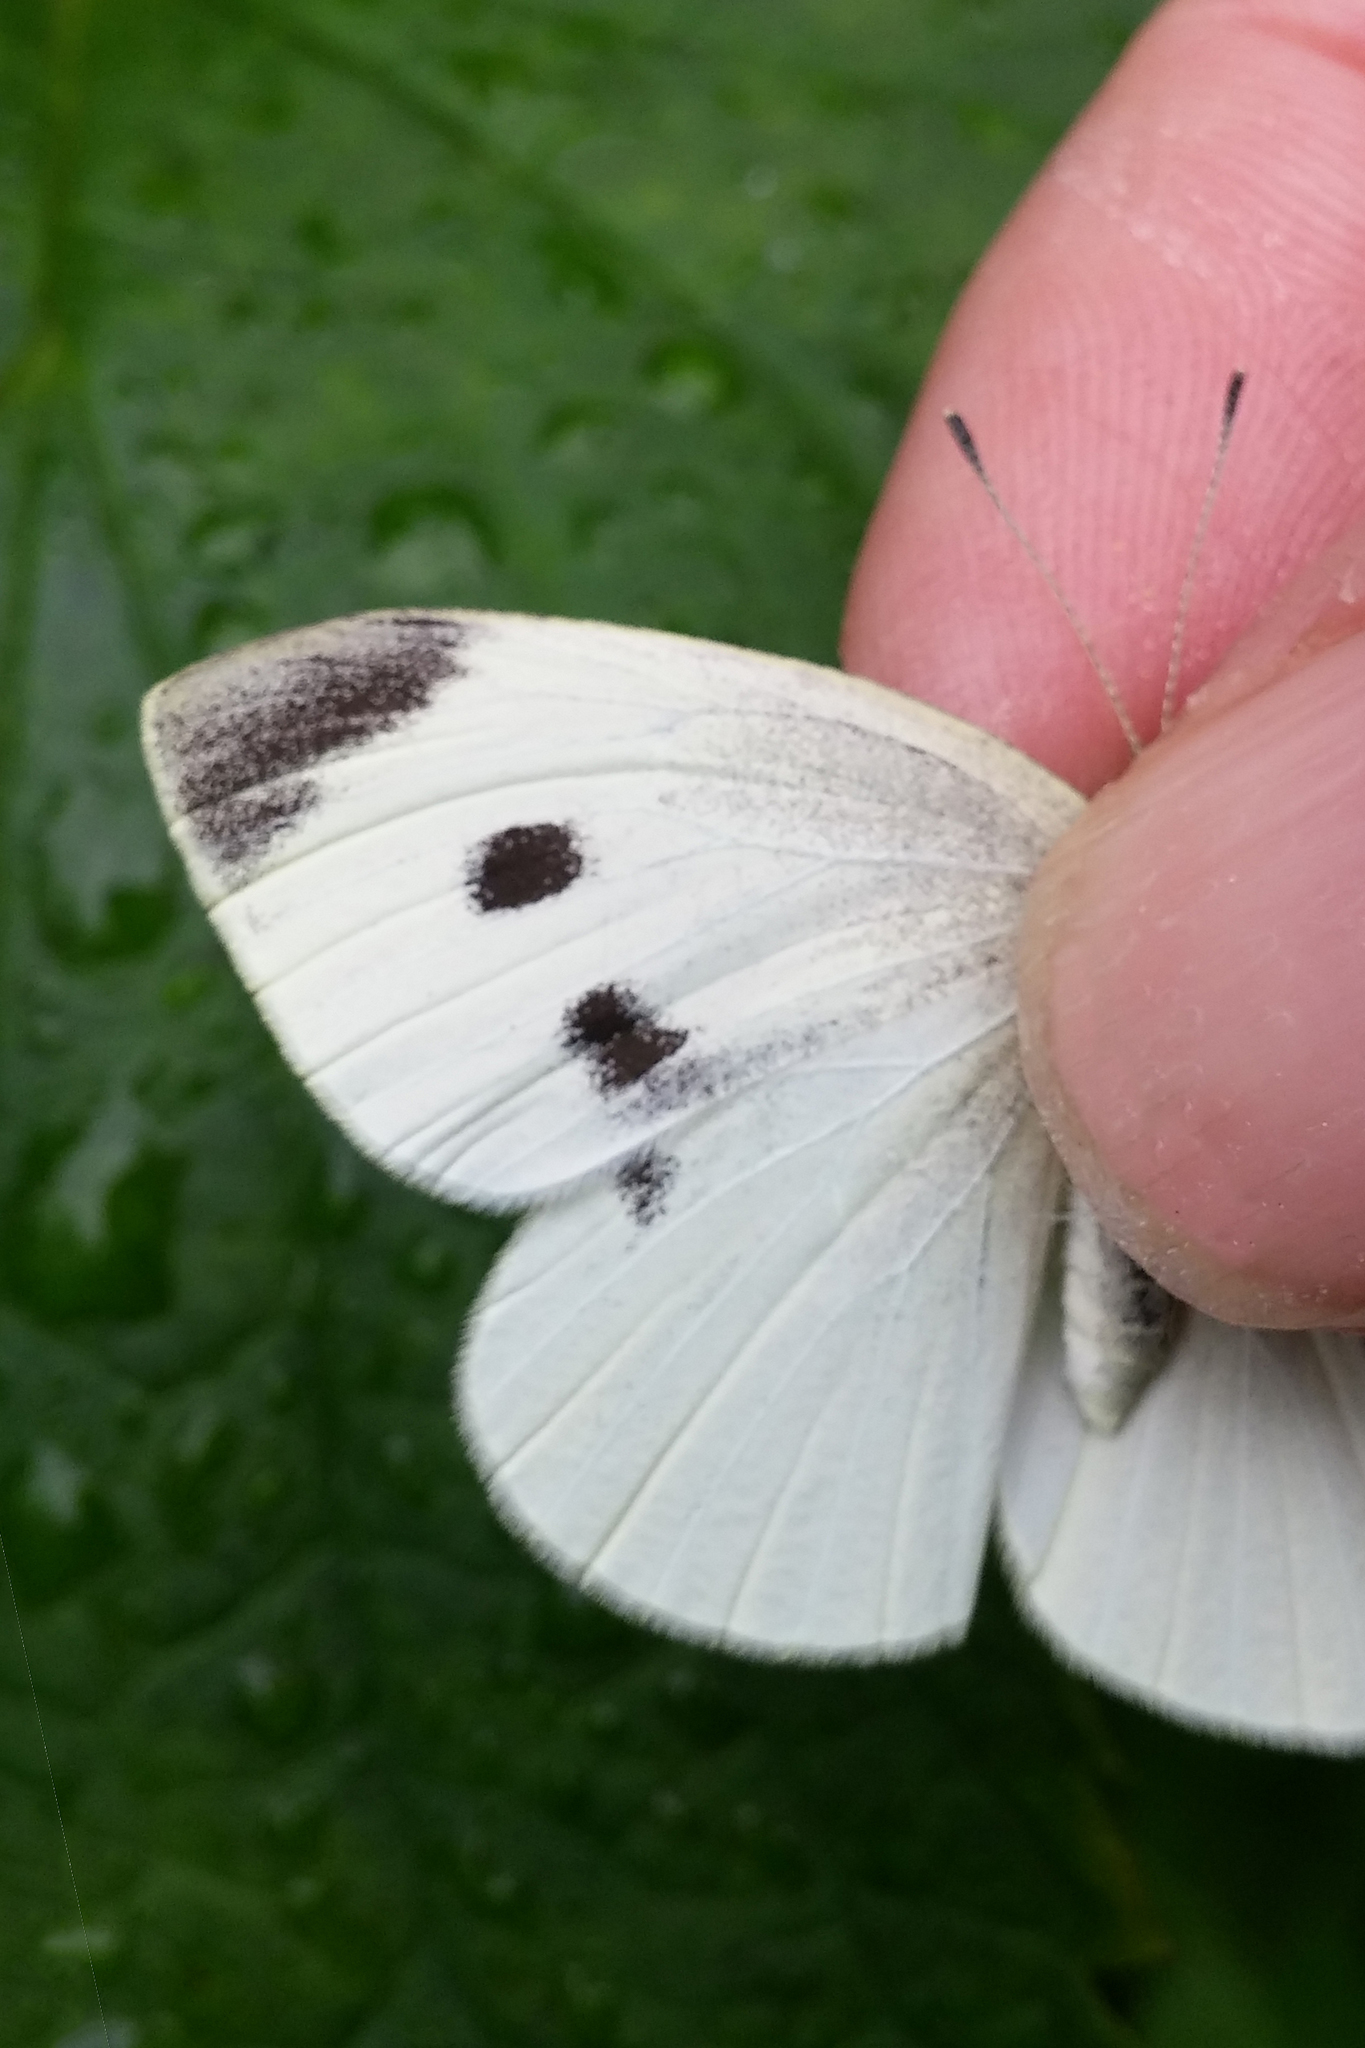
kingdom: Animalia
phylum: Arthropoda
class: Insecta
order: Lepidoptera
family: Pieridae
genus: Pieris
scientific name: Pieris rapae
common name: Small white
